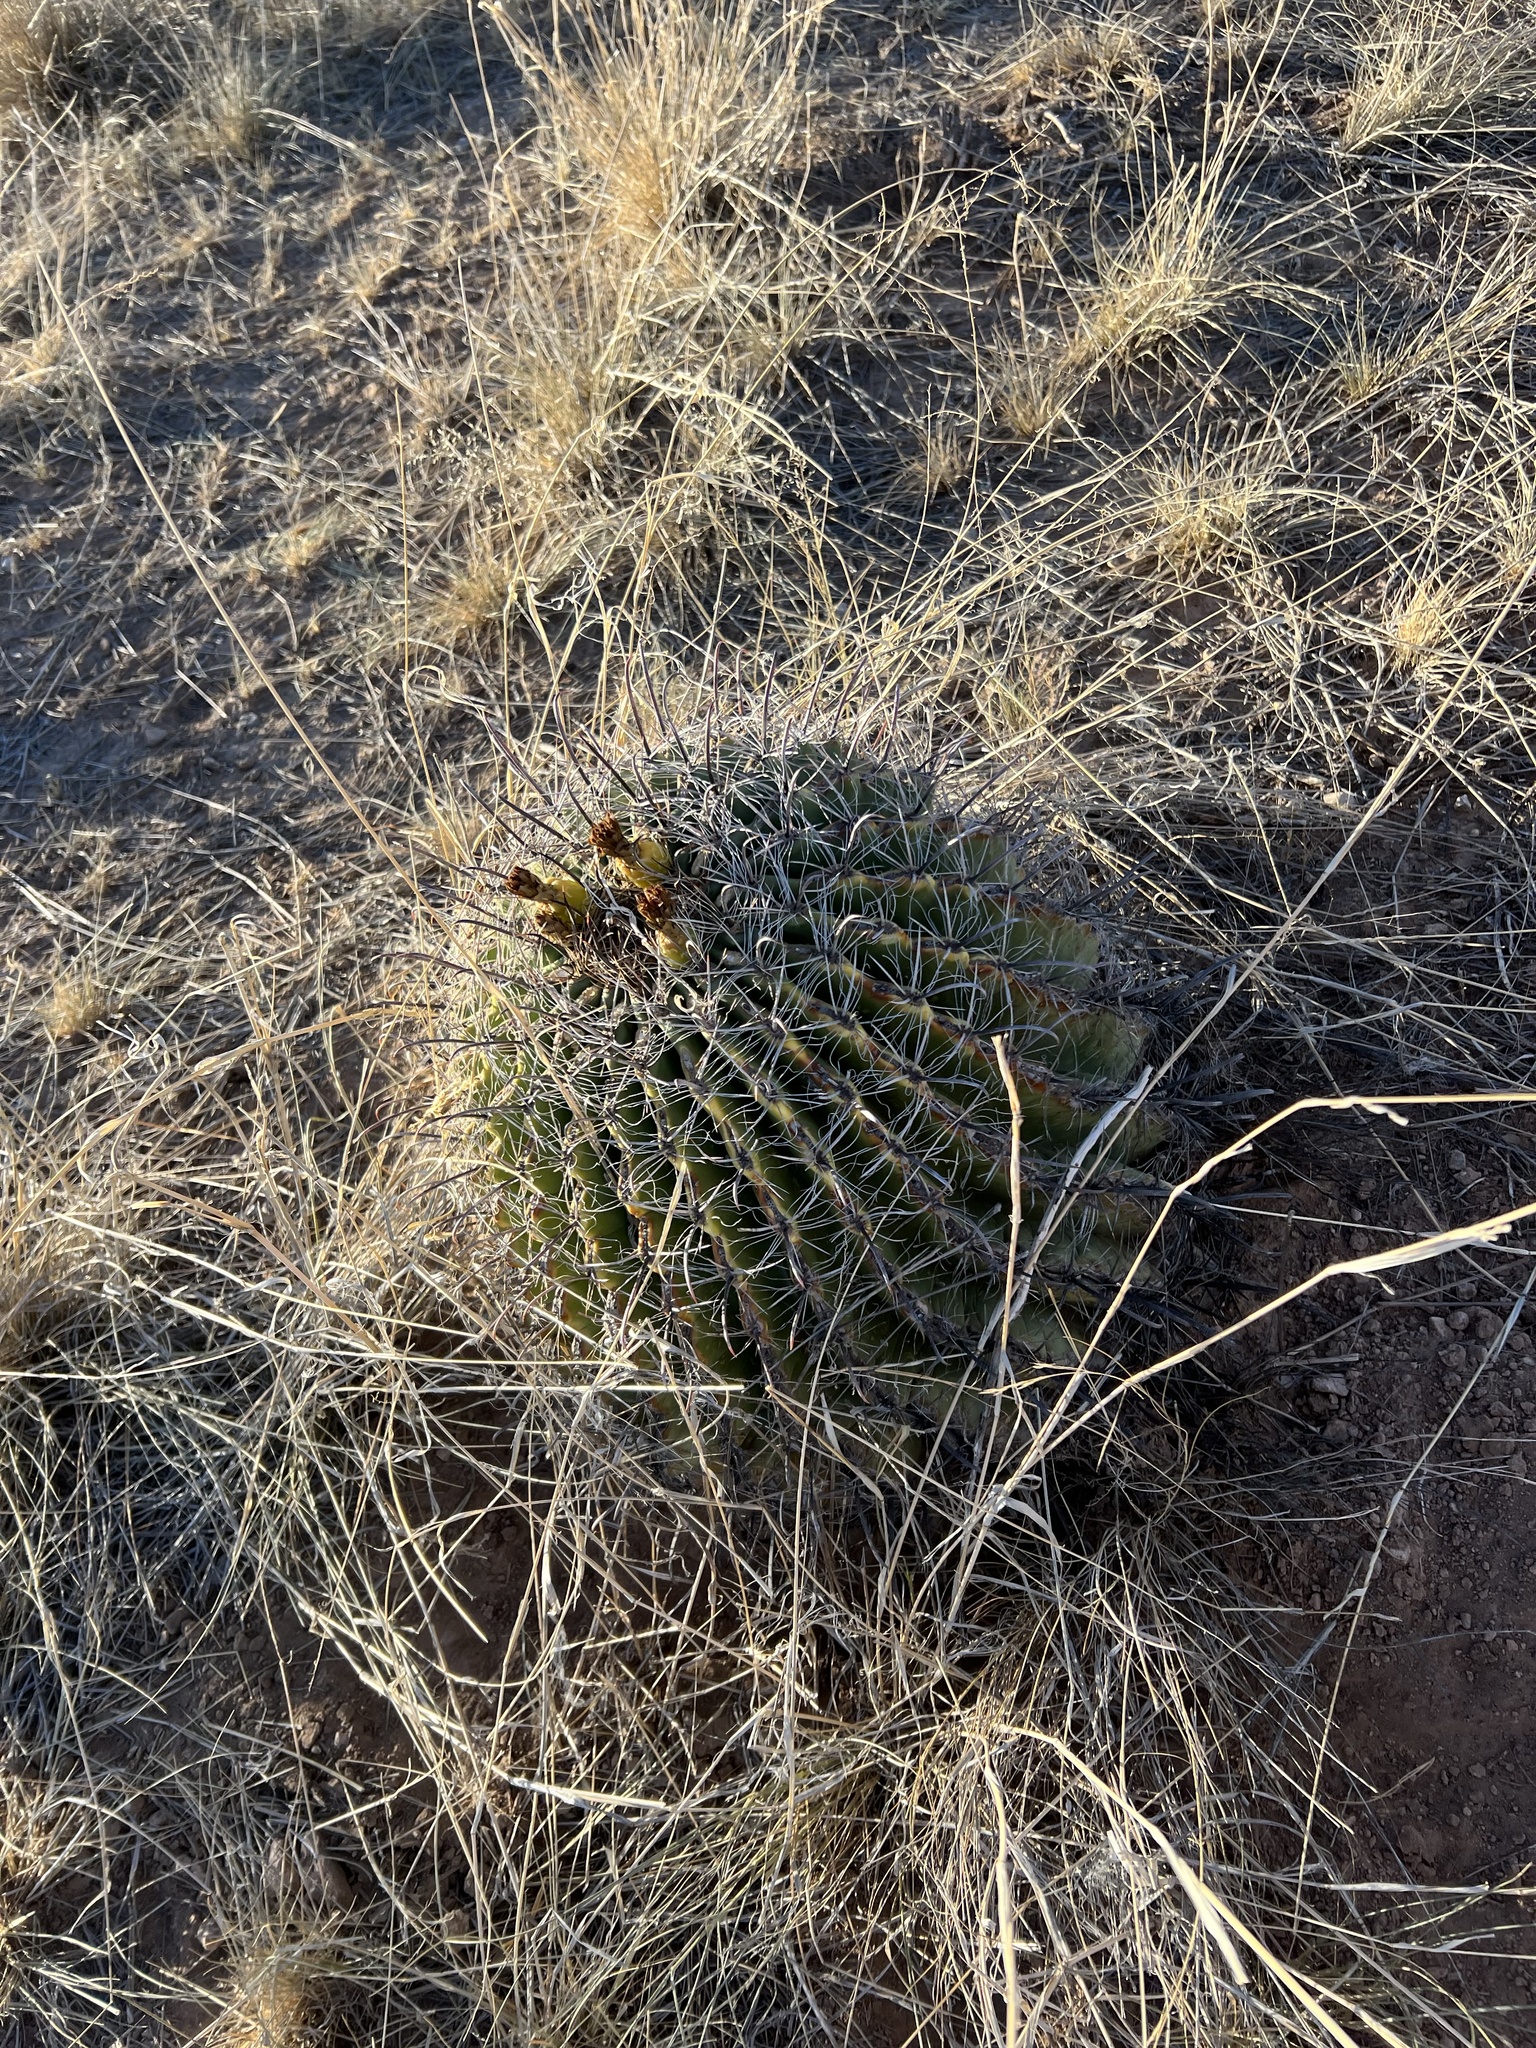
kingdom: Plantae
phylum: Tracheophyta
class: Magnoliopsida
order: Caryophyllales
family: Cactaceae
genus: Ferocactus
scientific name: Ferocactus wislizeni
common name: Candy barrel cactus
